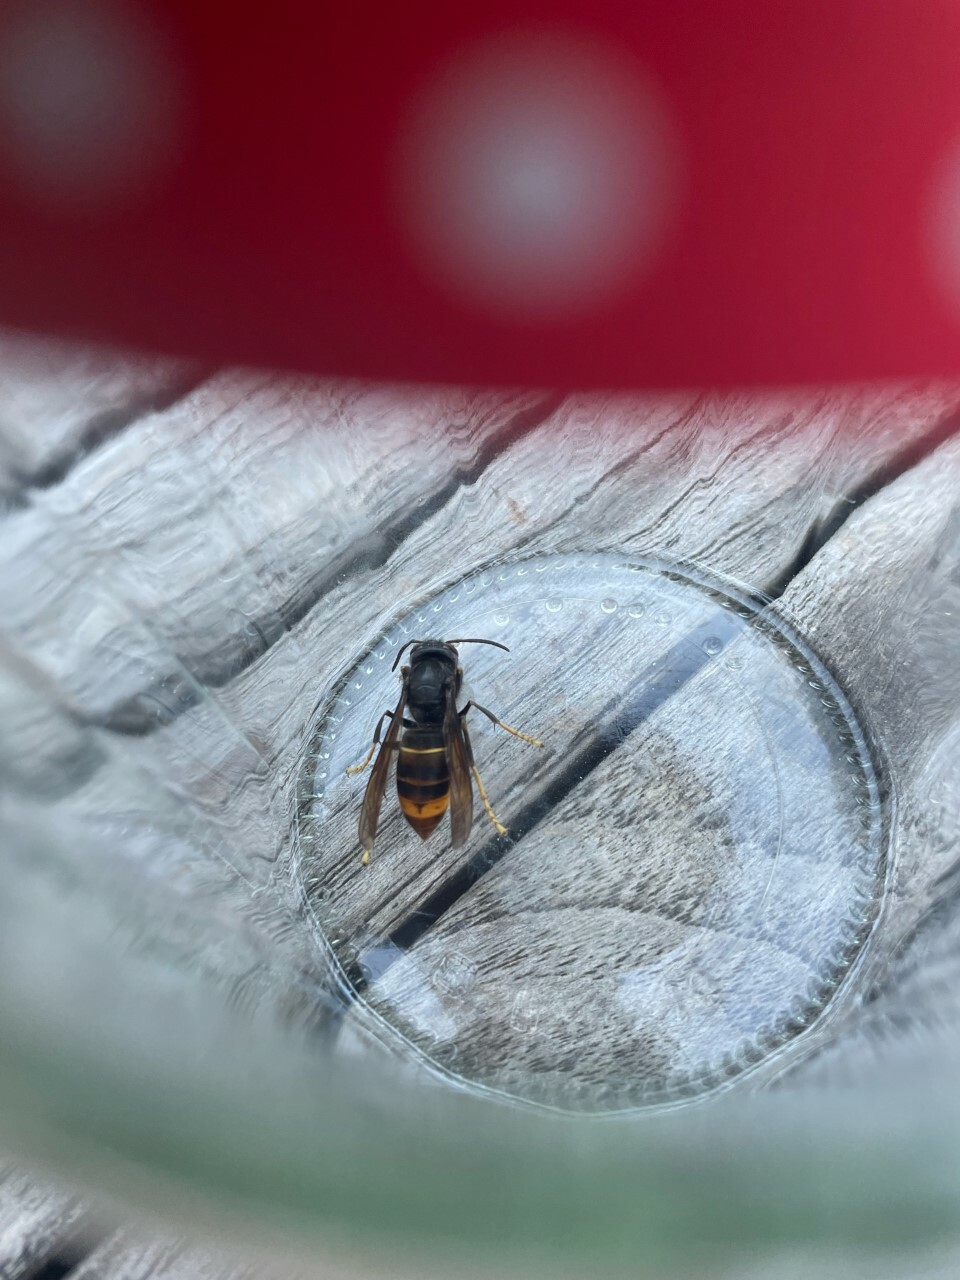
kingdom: Animalia
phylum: Arthropoda
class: Insecta
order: Hymenoptera
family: Vespidae
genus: Vespa
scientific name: Vespa velutina
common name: Asian hornet
